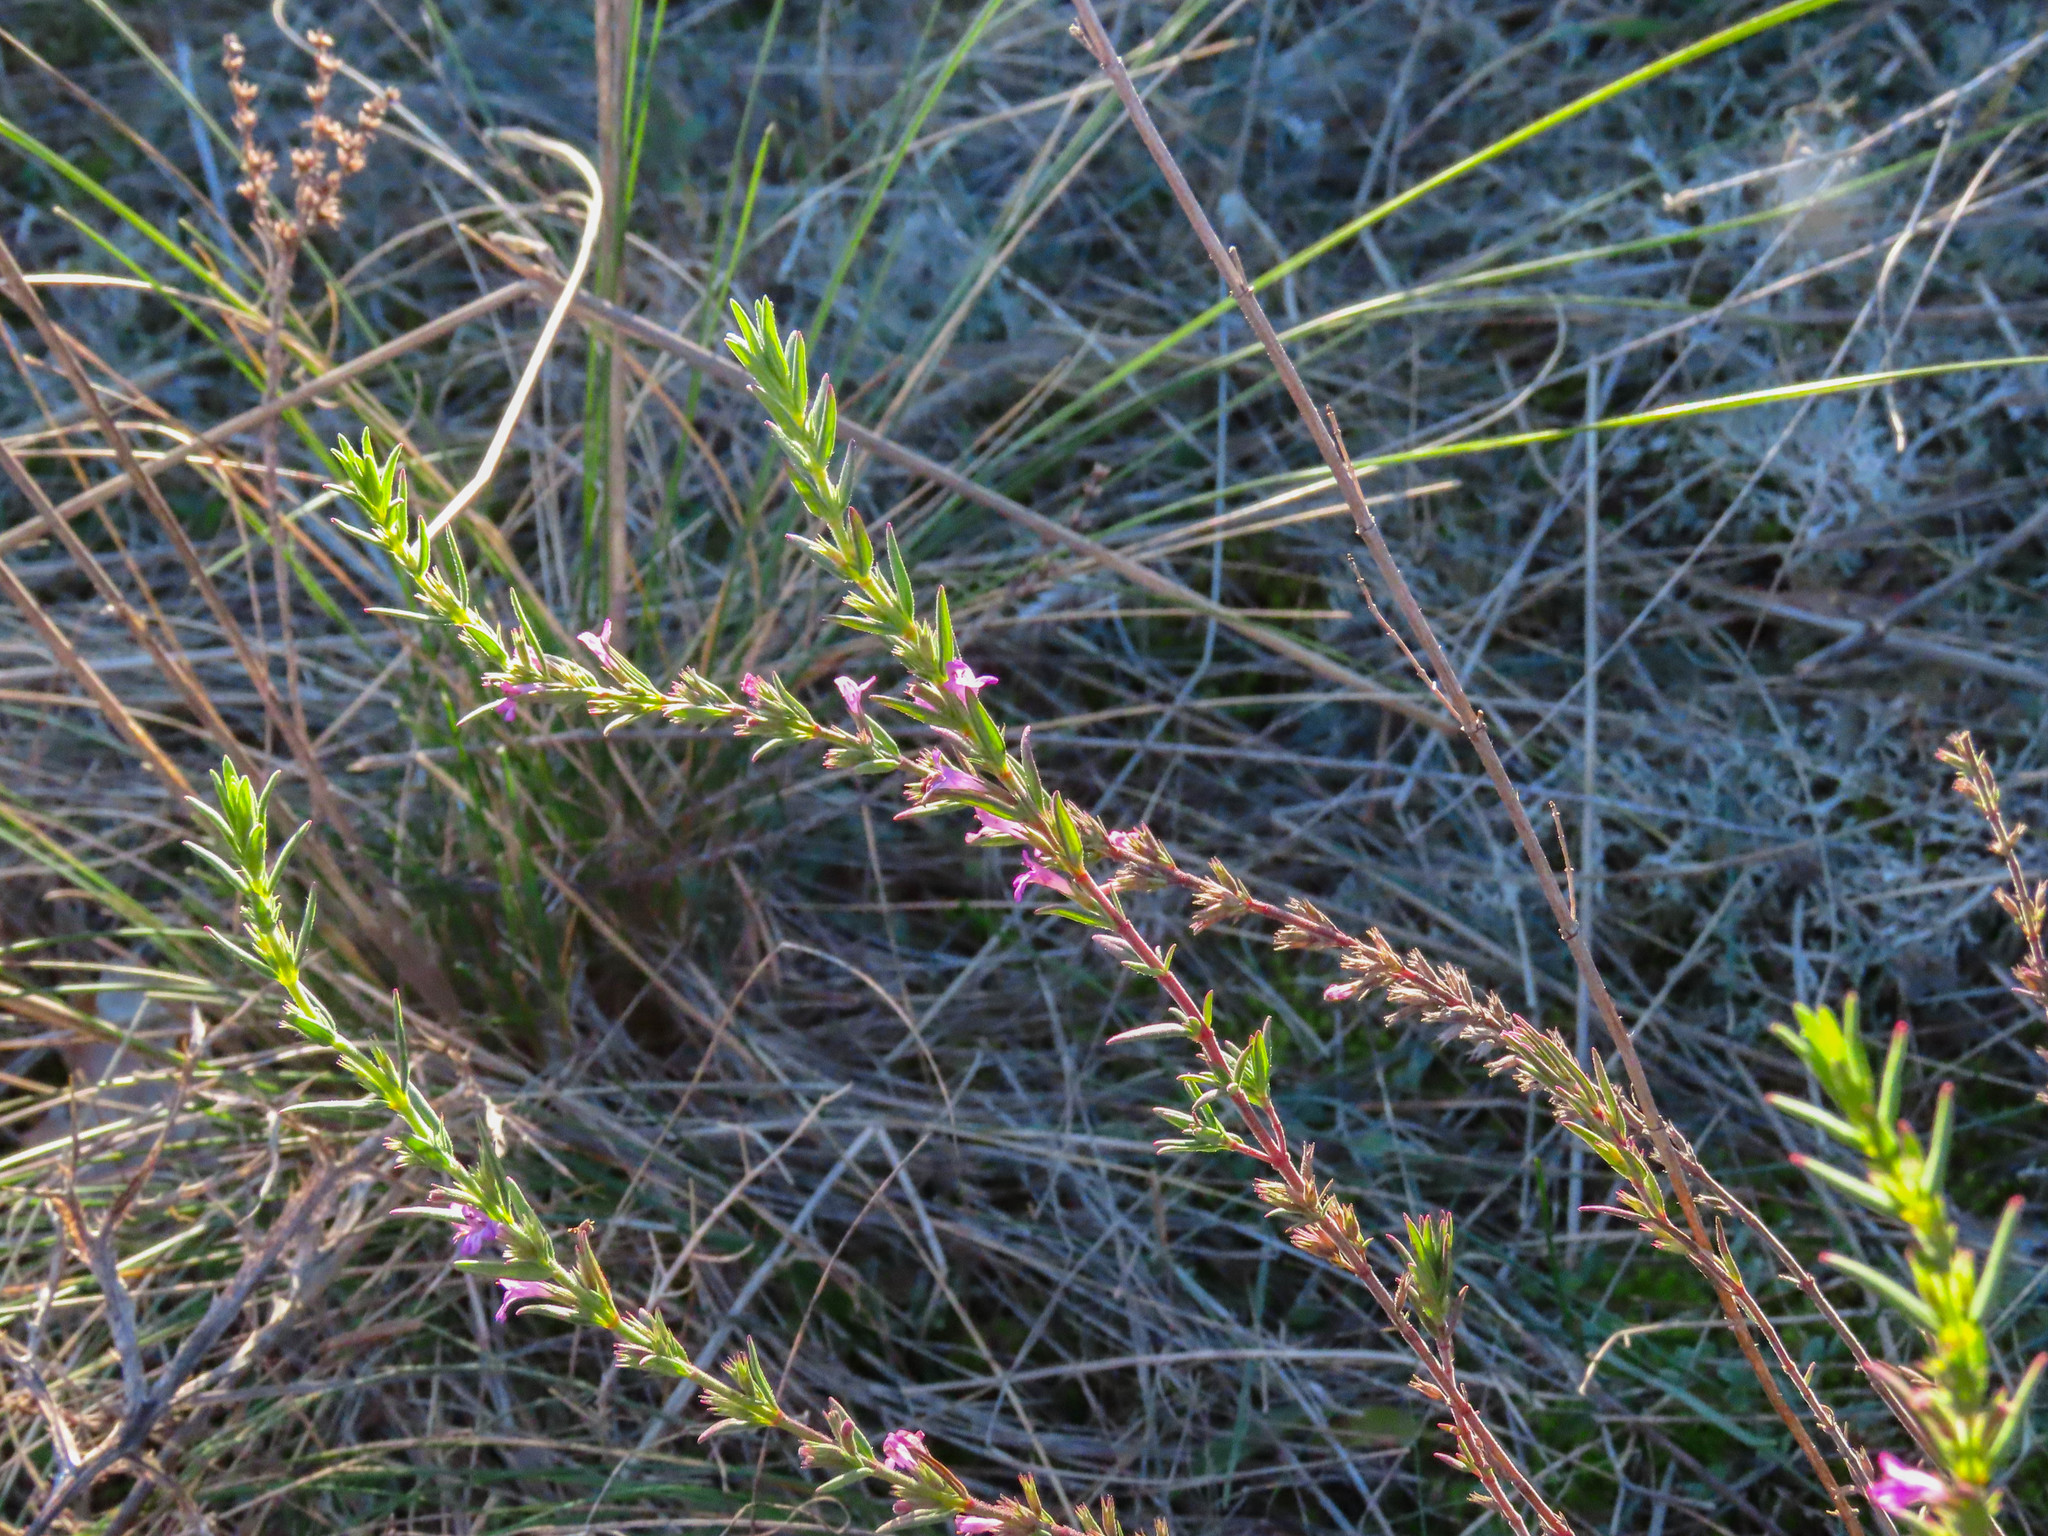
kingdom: Plantae
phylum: Tracheophyta
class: Magnoliopsida
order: Lamiales
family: Lamiaceae
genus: Micromeria
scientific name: Micromeria graeca
